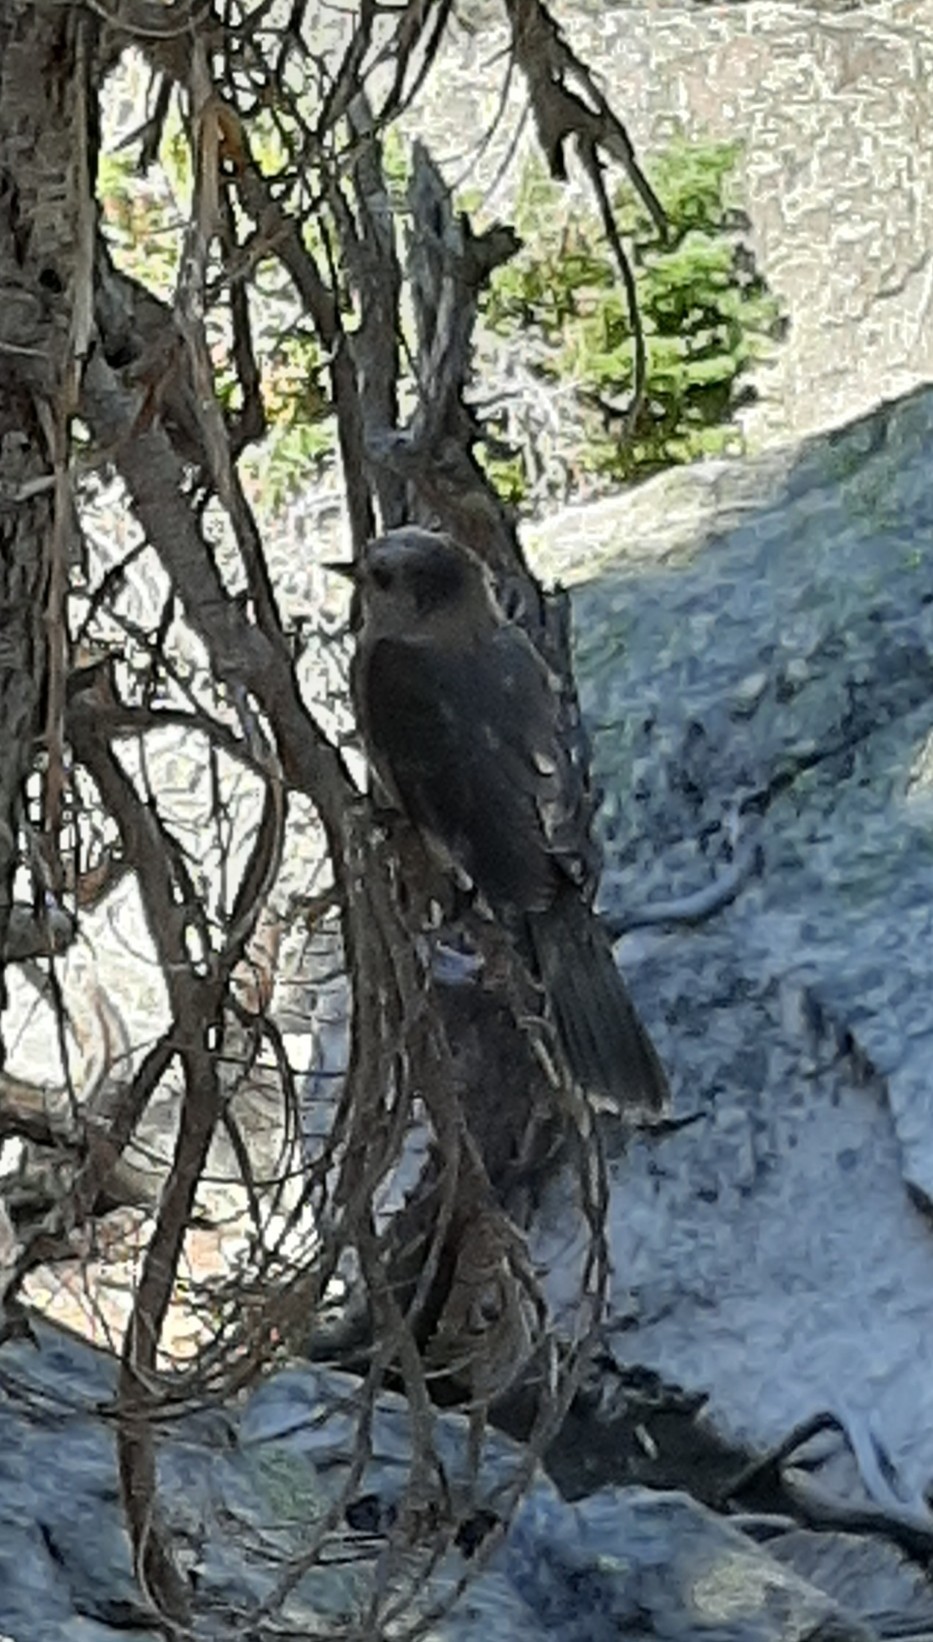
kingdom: Animalia
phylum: Chordata
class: Aves
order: Passeriformes
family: Corvidae
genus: Perisoreus
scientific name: Perisoreus canadensis
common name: Gray jay
